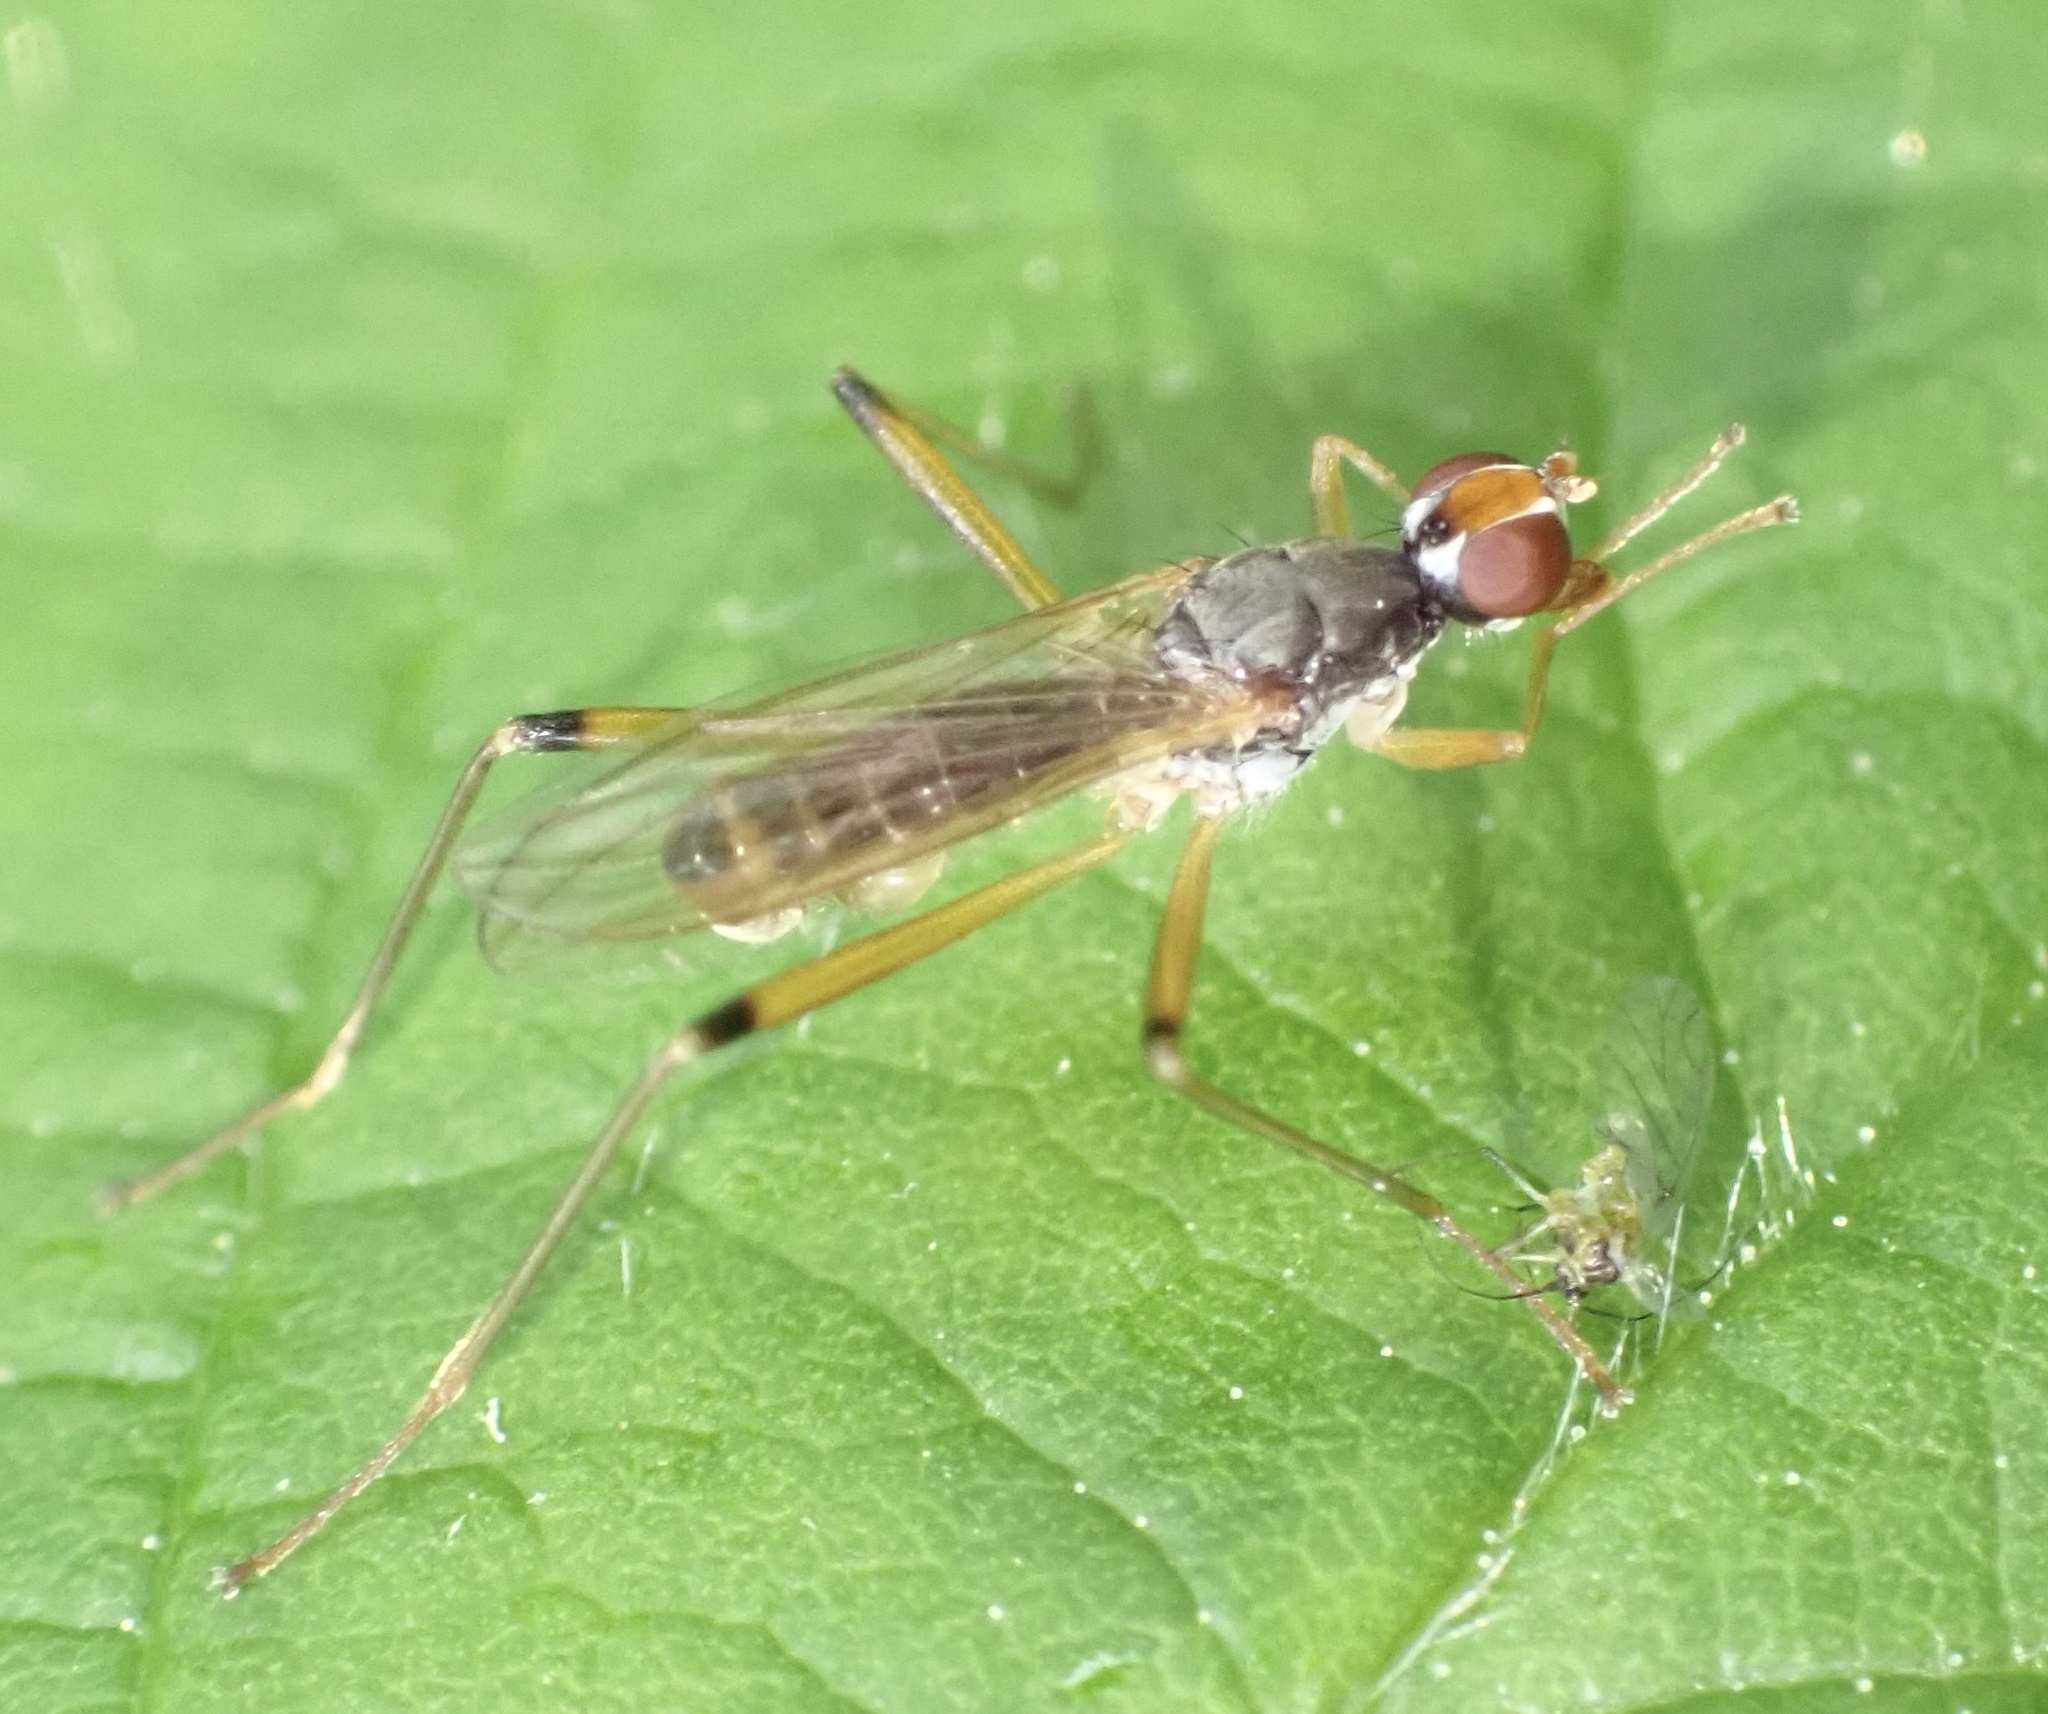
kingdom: Animalia
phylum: Arthropoda
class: Insecta
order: Diptera
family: Micropezidae
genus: Compsobata
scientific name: Compsobata cibaria
